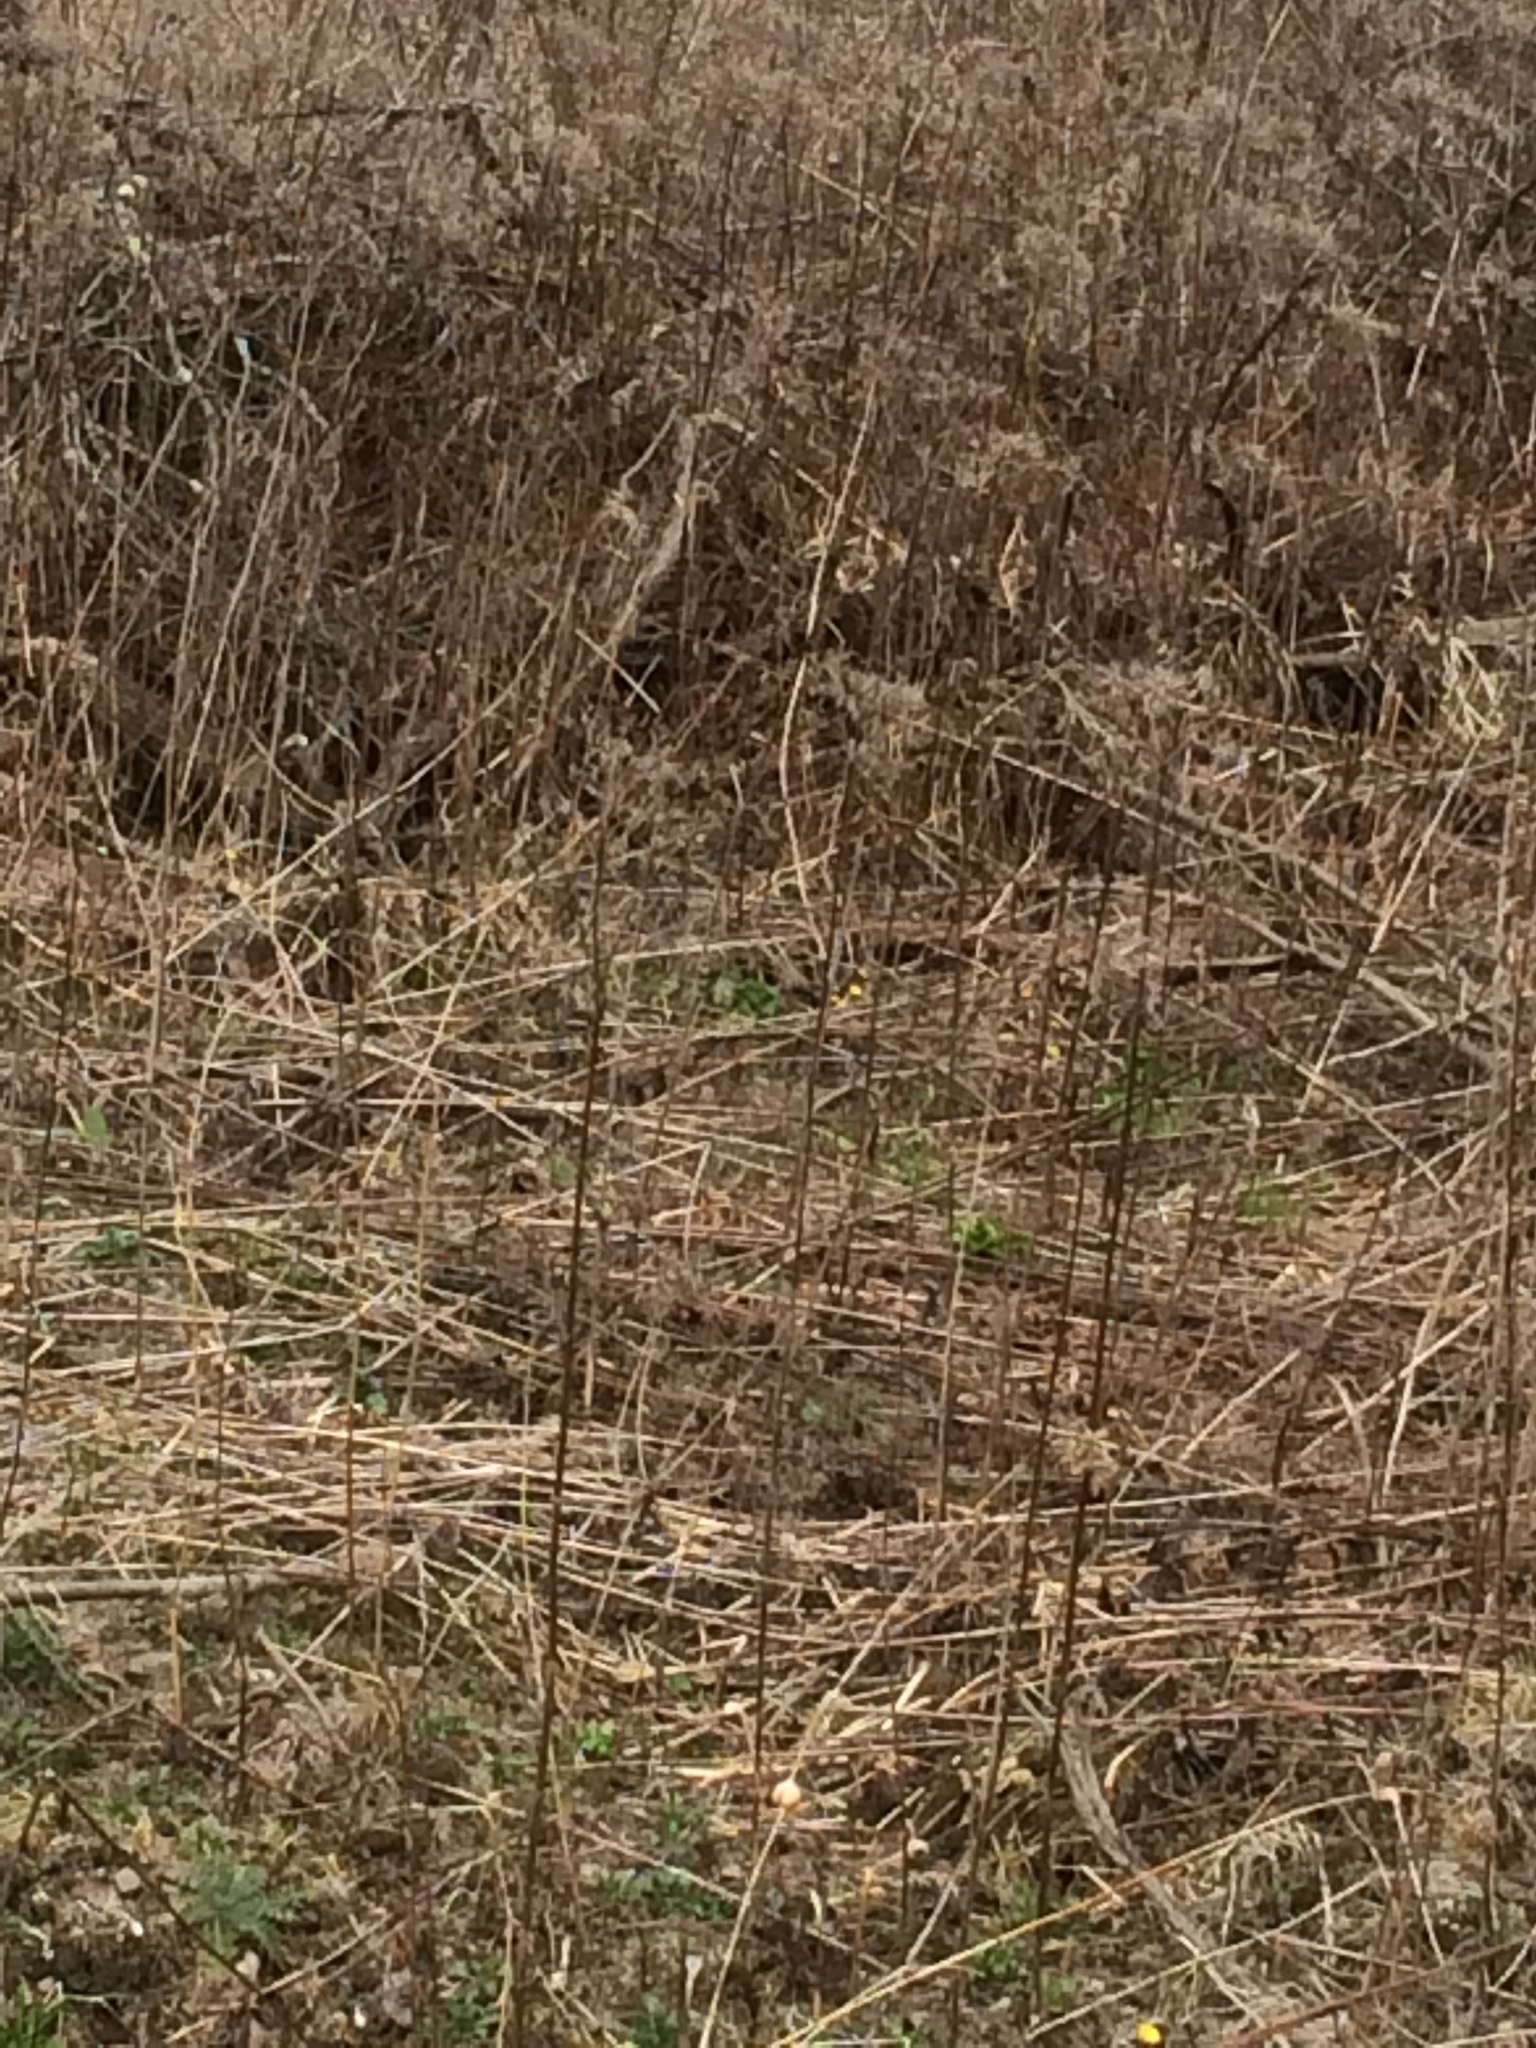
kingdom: Plantae
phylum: Tracheophyta
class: Magnoliopsida
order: Asterales
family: Asteraceae
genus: Eutrochium
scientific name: Eutrochium maculatum
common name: Spotted joe pye weed
